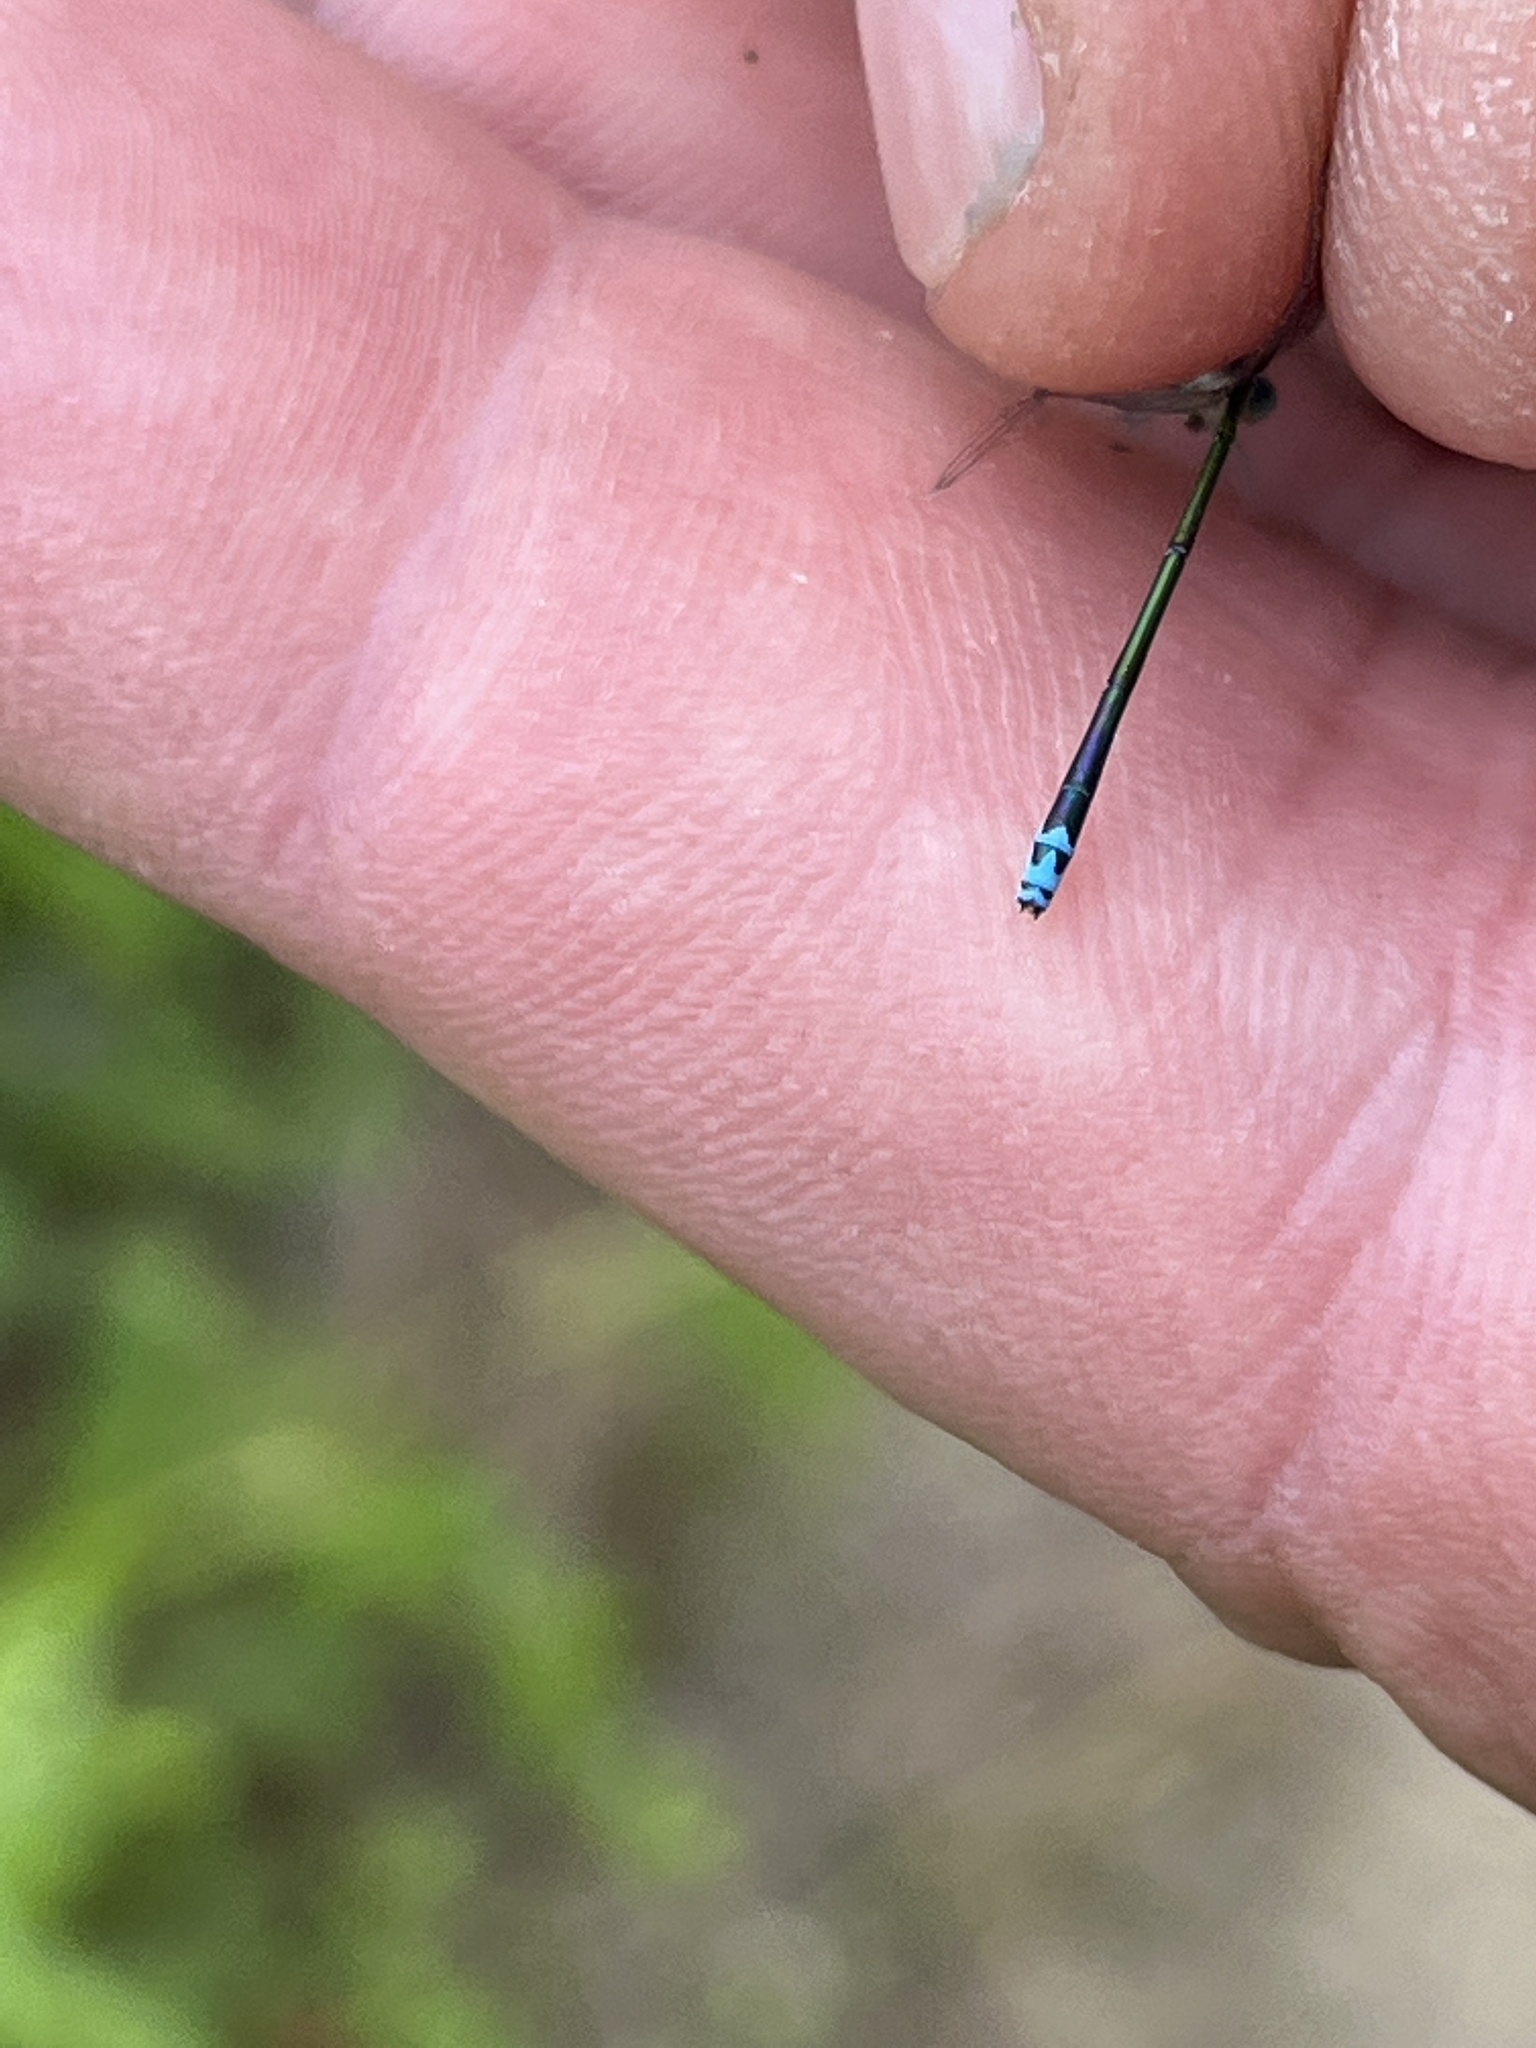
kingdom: Animalia
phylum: Arthropoda
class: Insecta
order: Odonata
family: Coenagrionidae
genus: Nehalennia
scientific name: Nehalennia irene
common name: Sedge sprite
